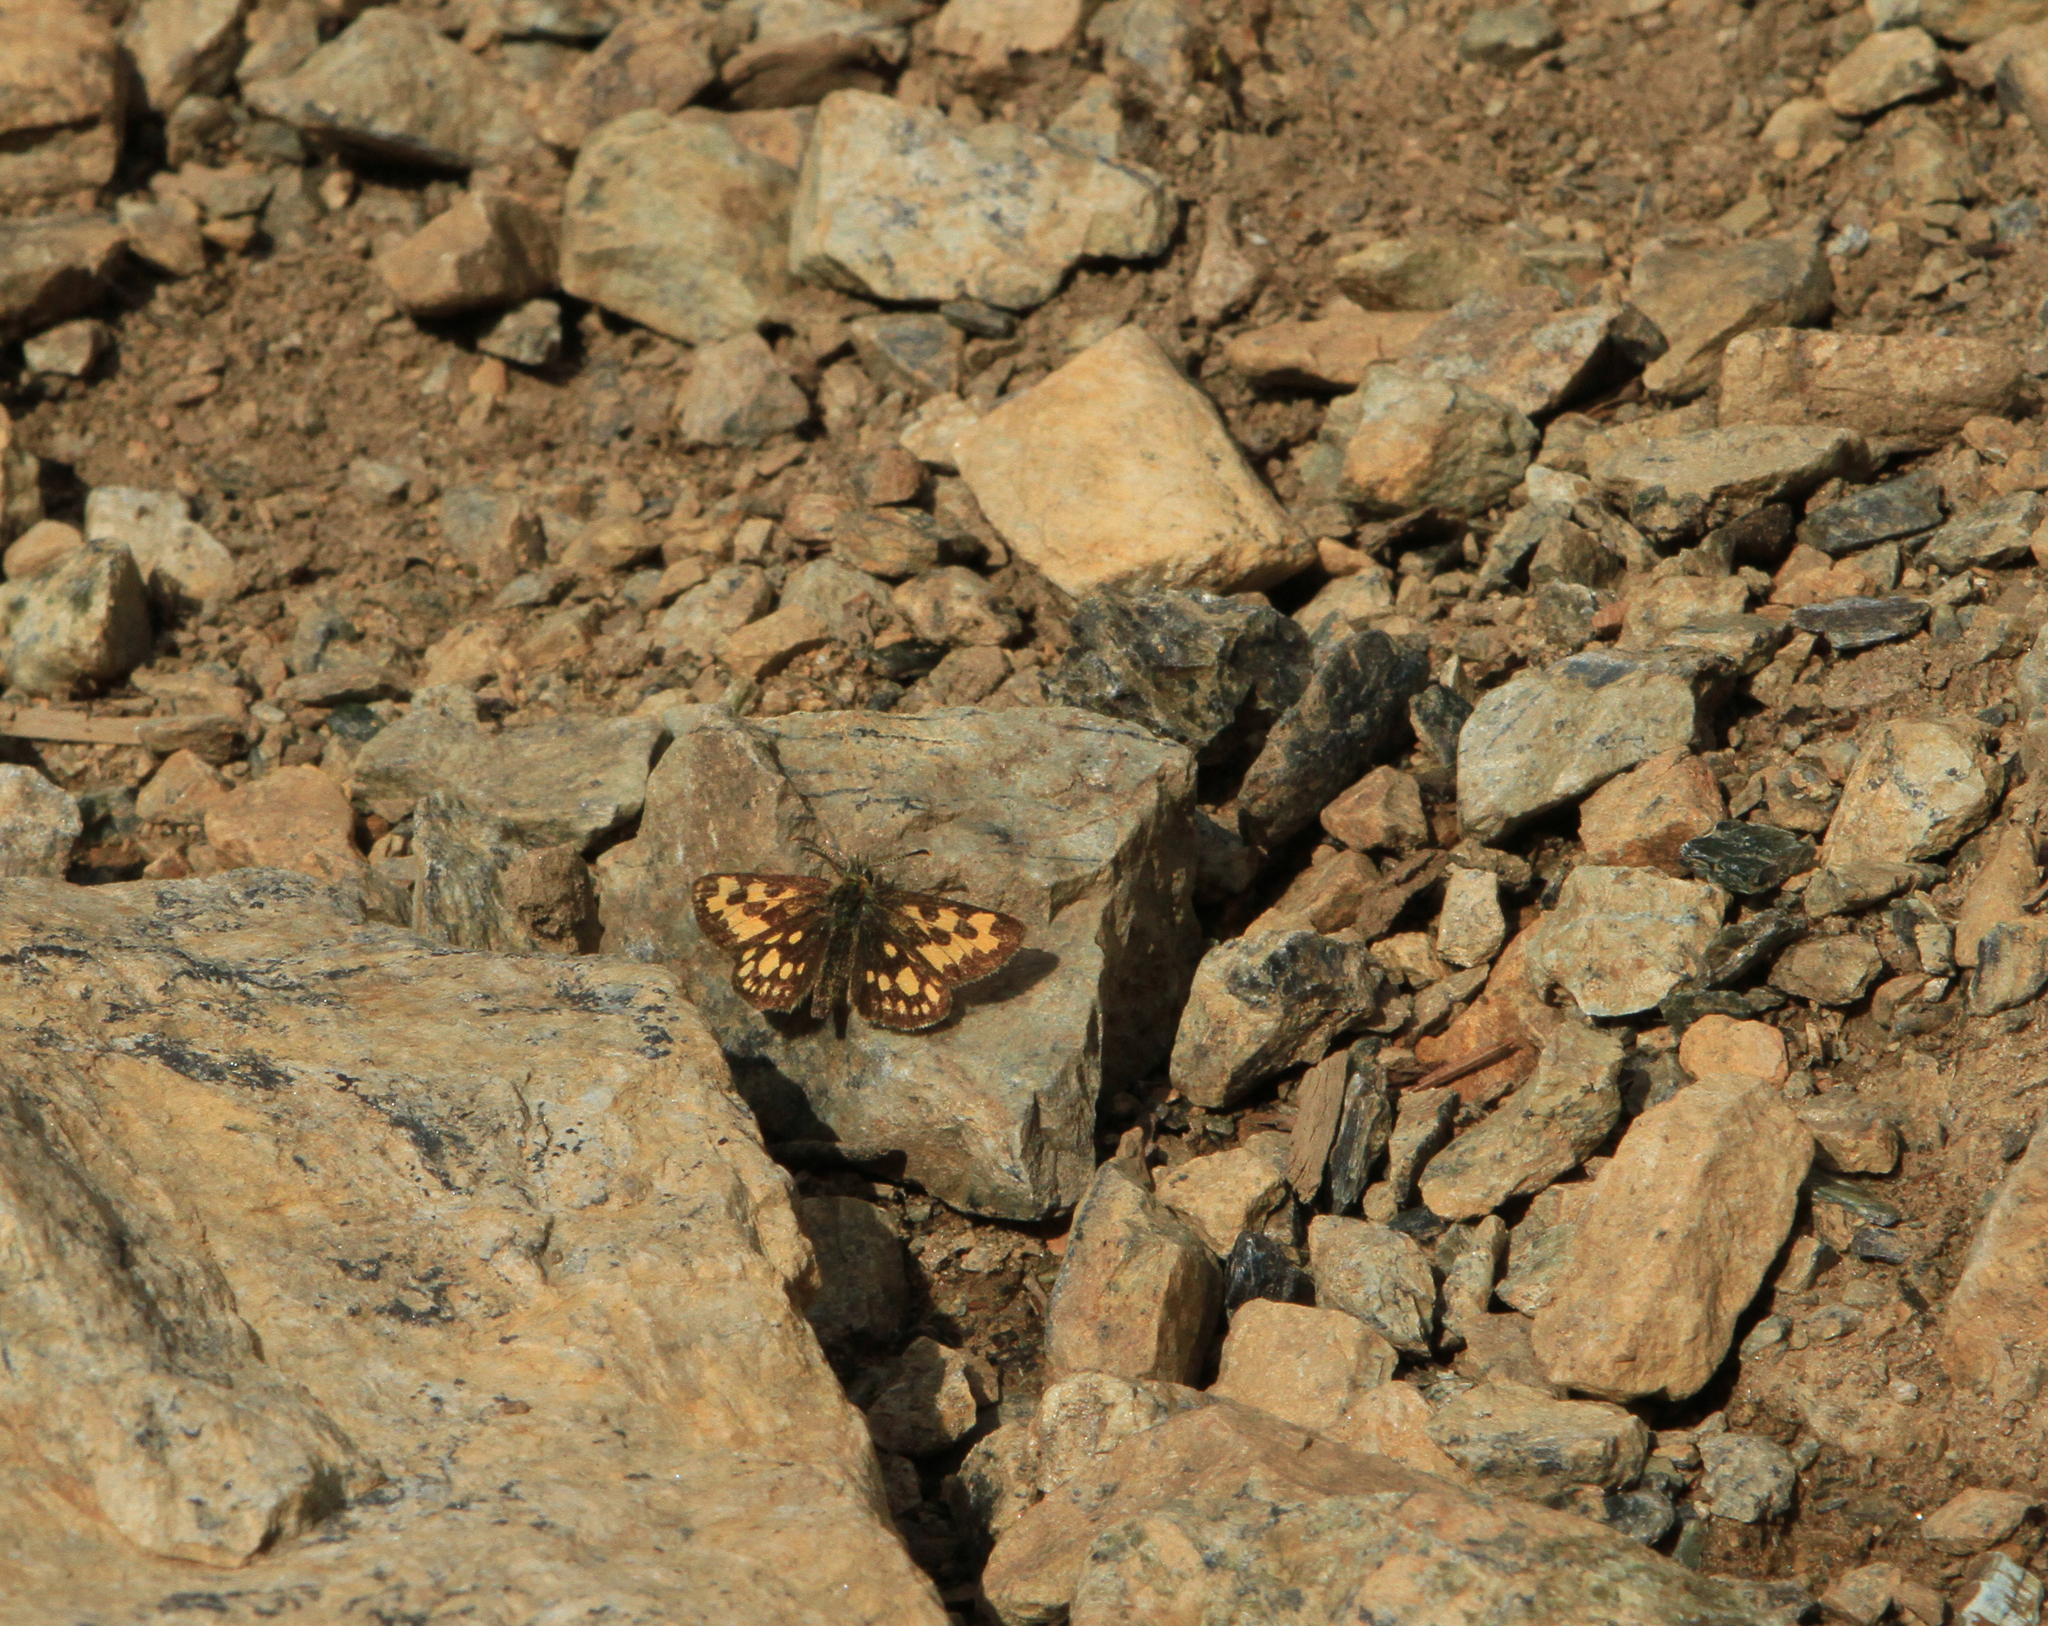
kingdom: Animalia
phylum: Arthropoda
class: Insecta
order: Lepidoptera
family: Hesperiidae
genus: Carterocephalus
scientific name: Carterocephalus silvicola
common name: Northern chequered skipper
